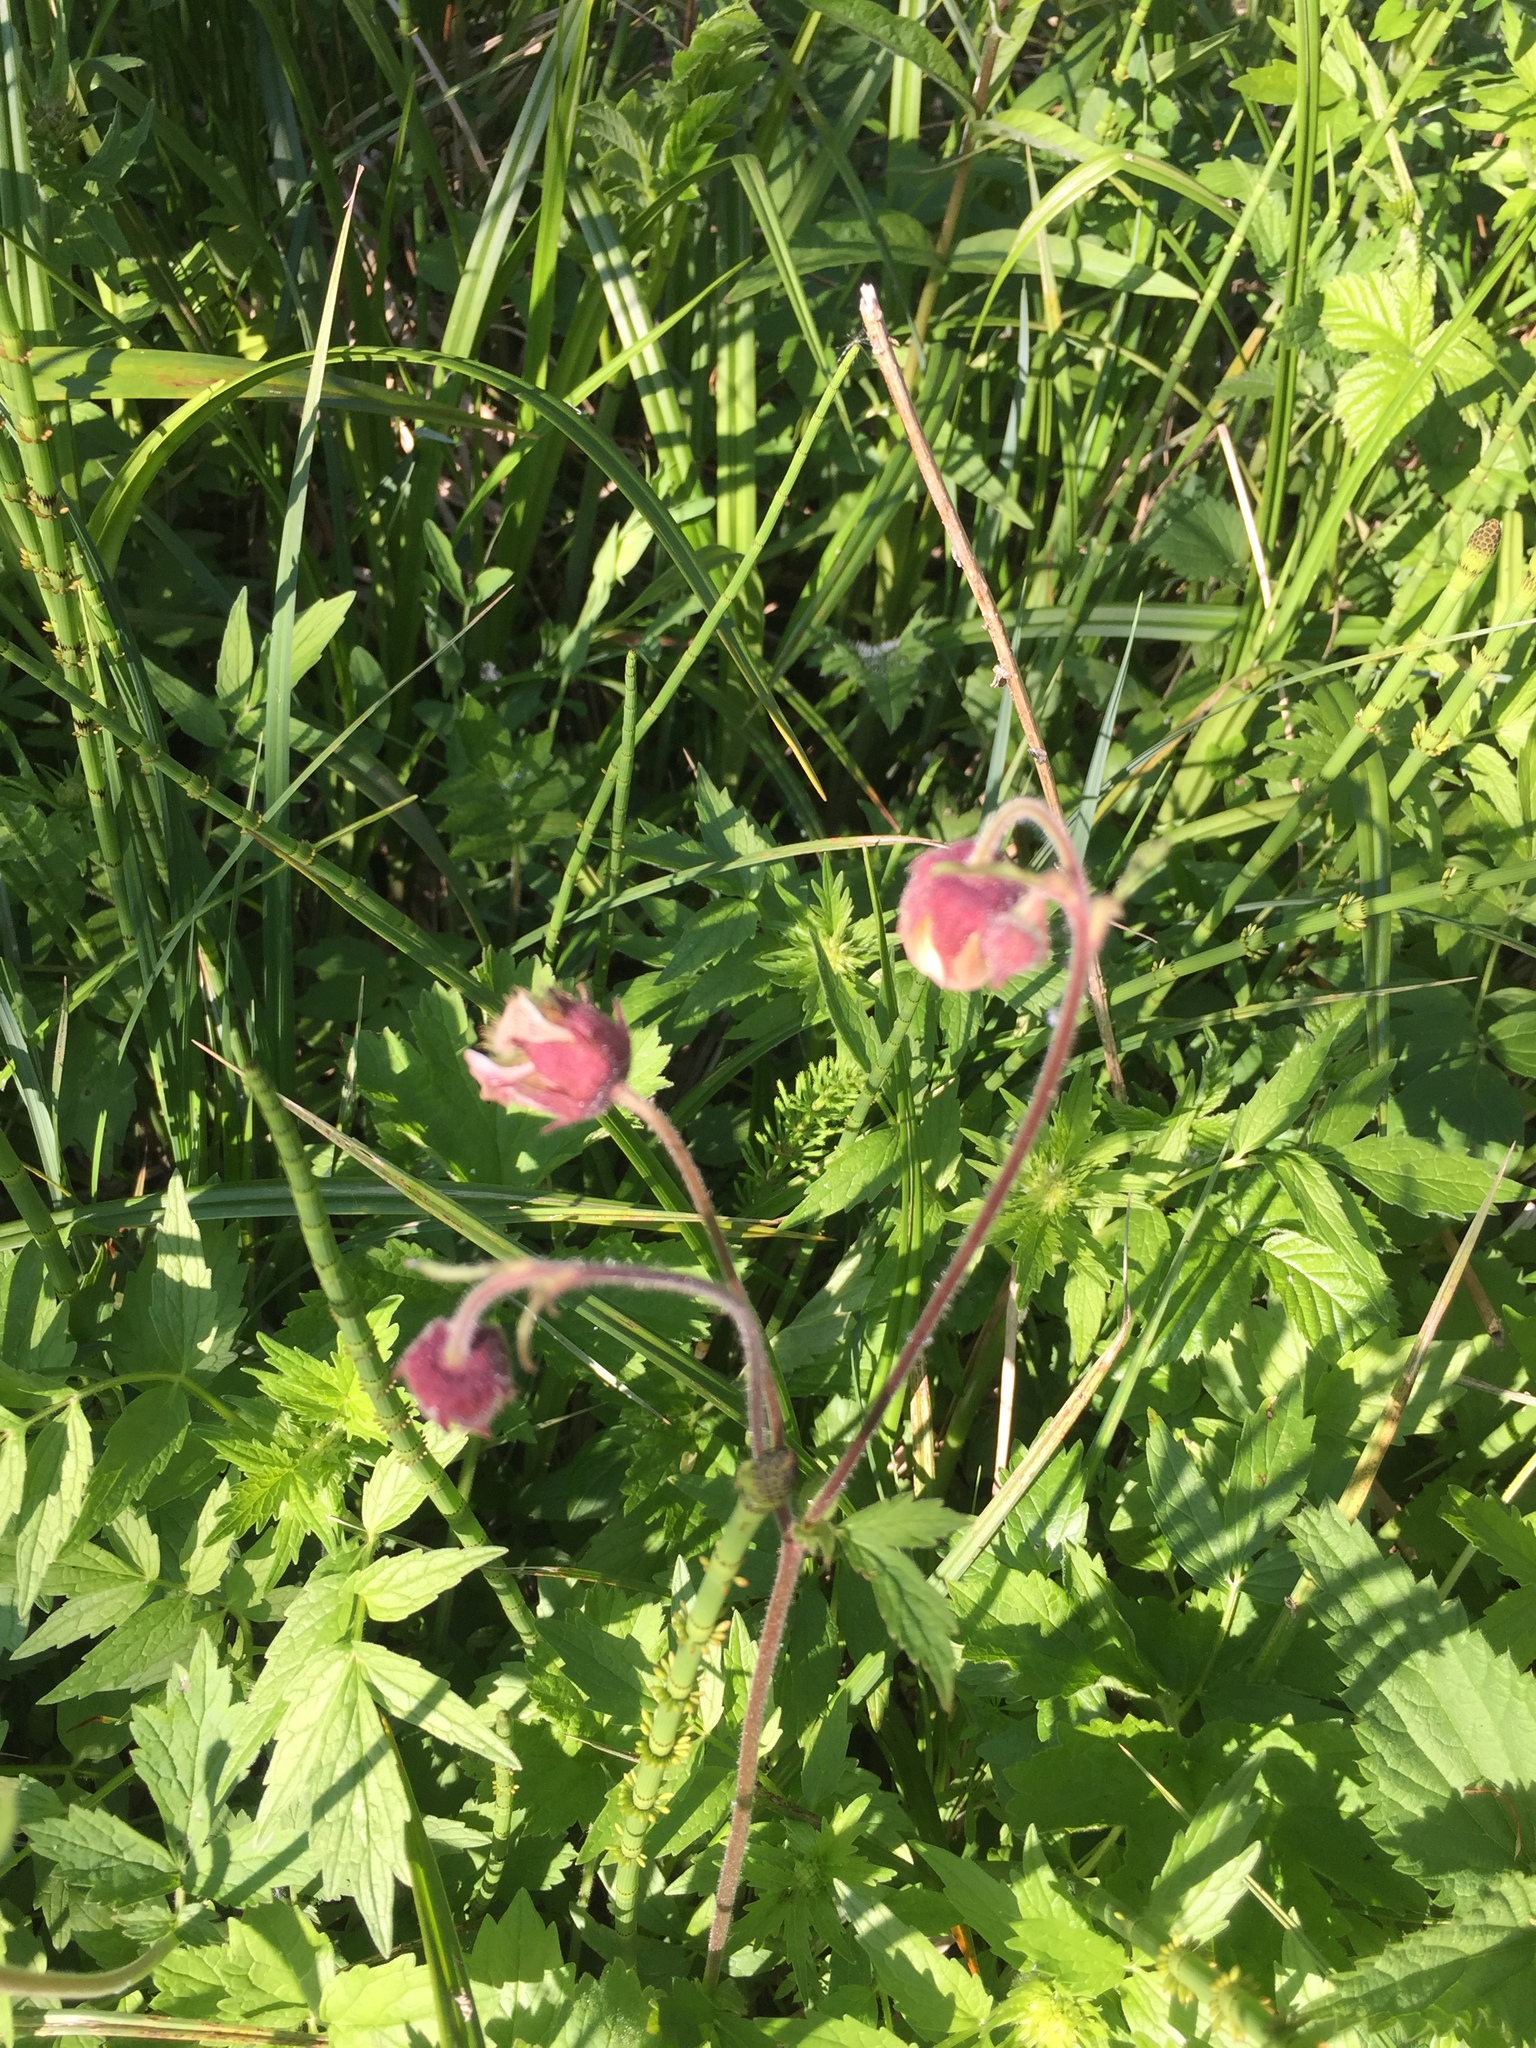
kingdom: Plantae
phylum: Tracheophyta
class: Magnoliopsida
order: Rosales
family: Rosaceae
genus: Geum
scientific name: Geum rivale
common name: Water avens
